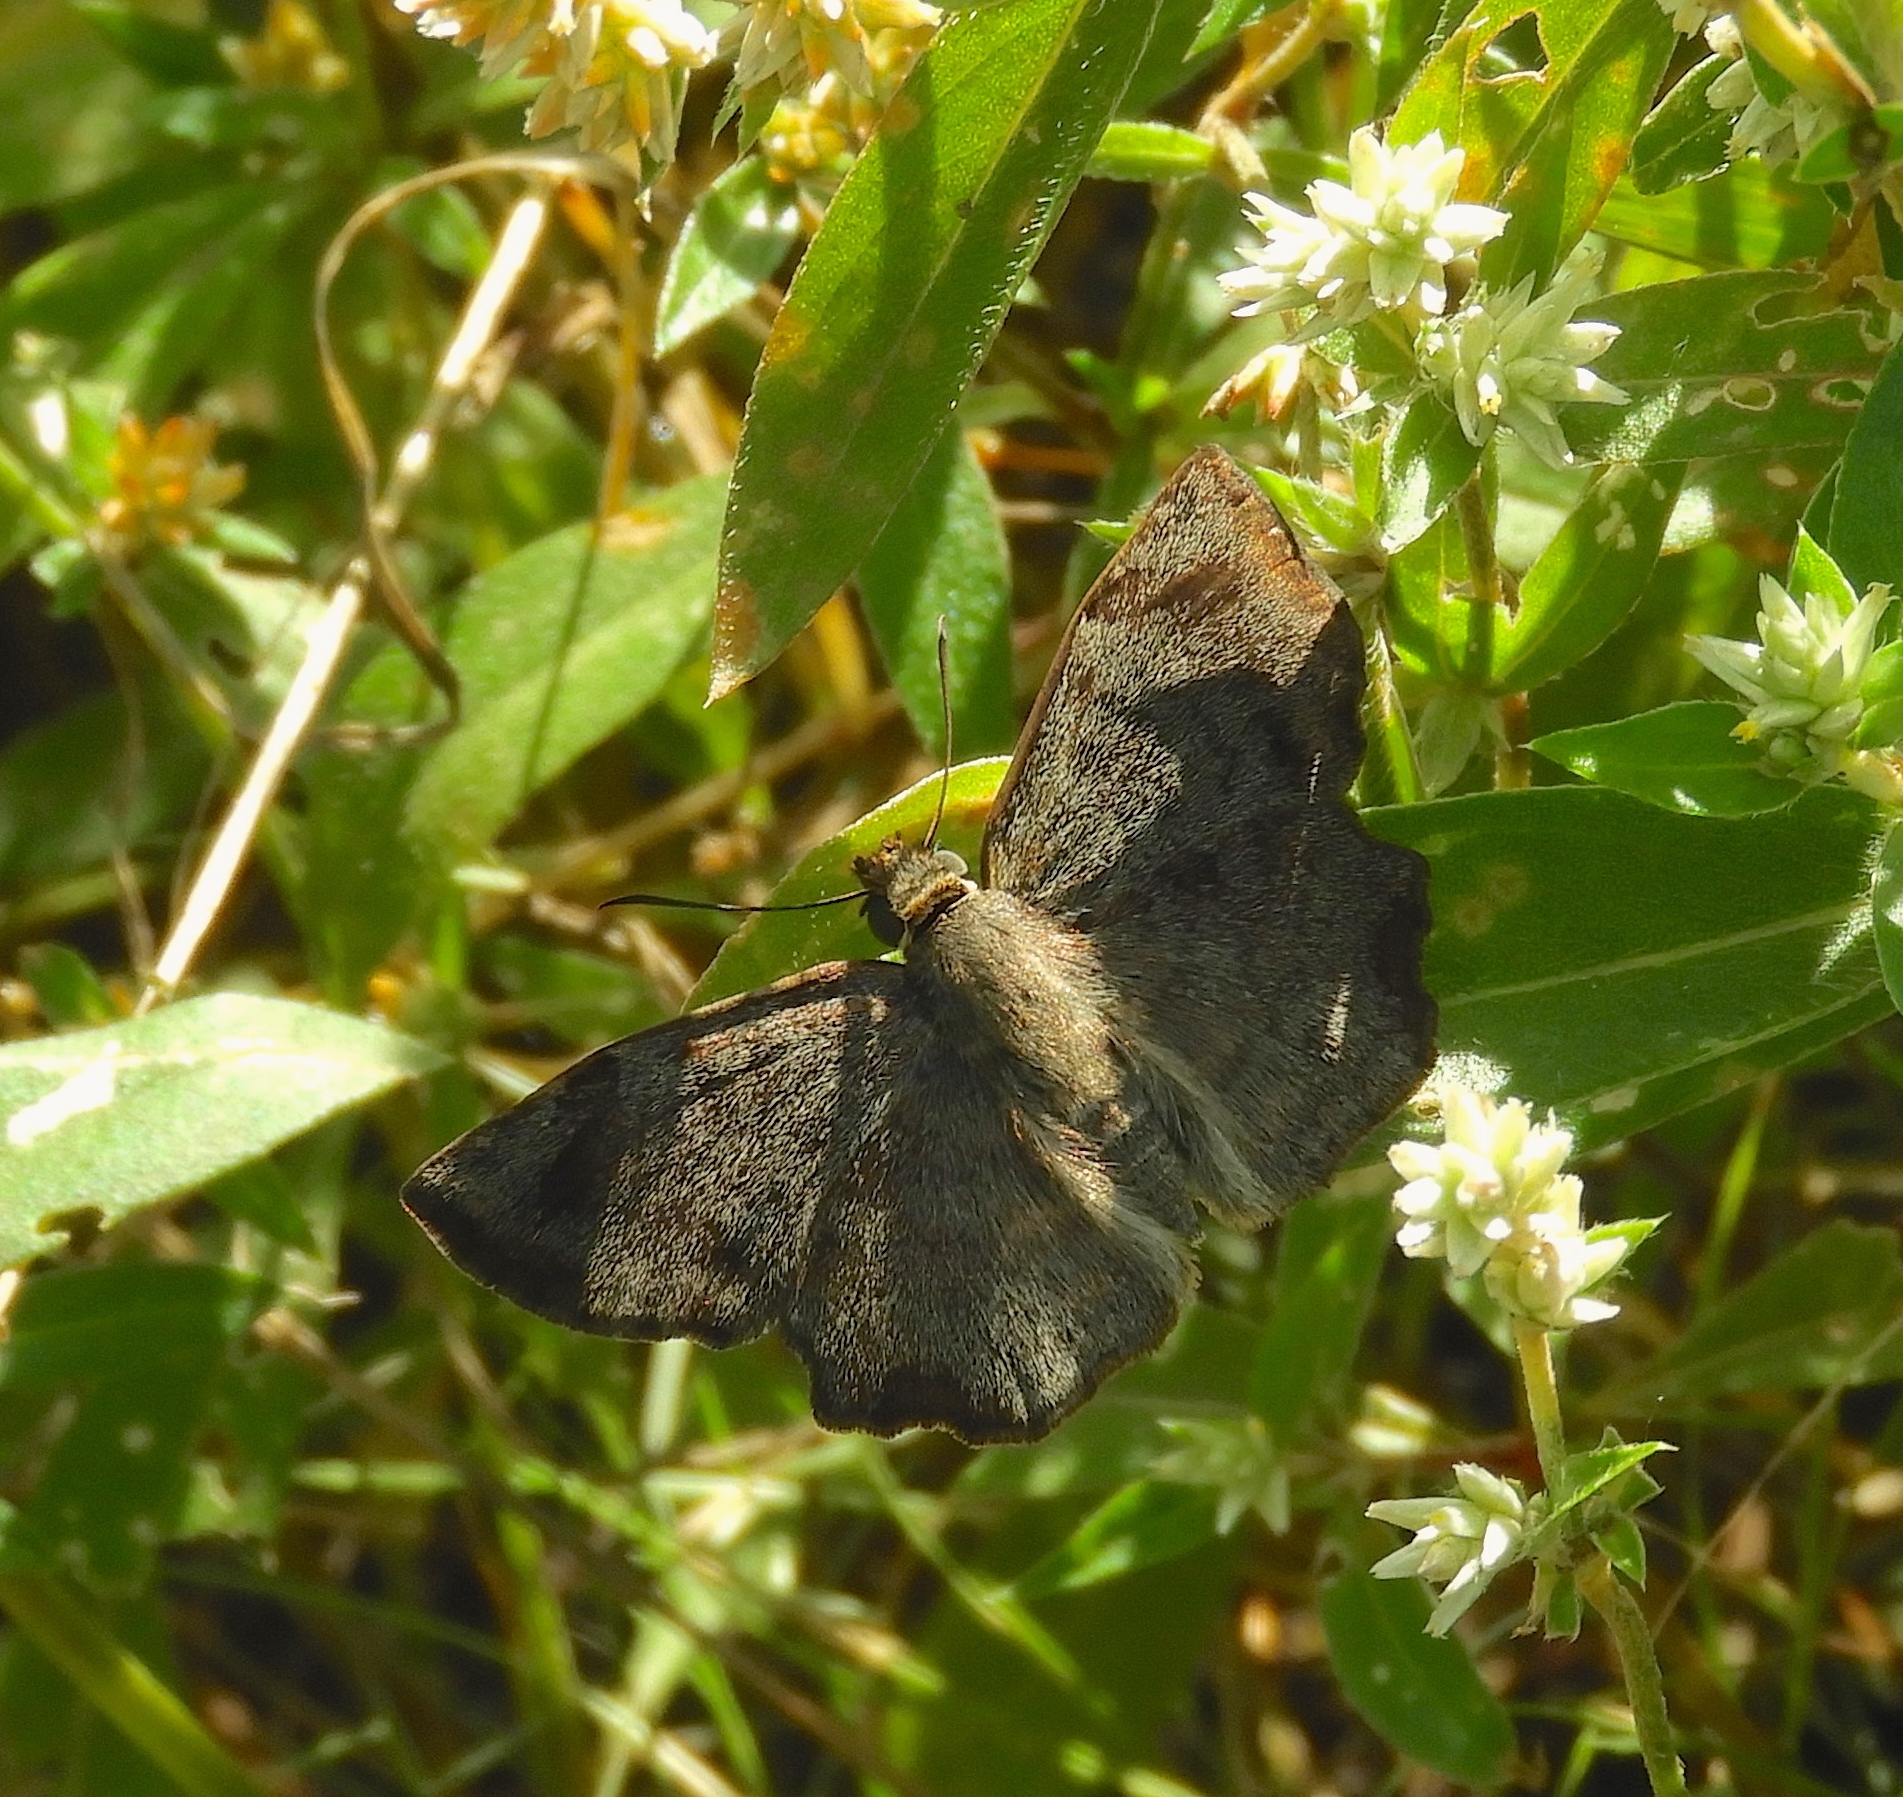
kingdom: Animalia
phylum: Arthropoda
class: Insecta
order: Lepidoptera
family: Hesperiidae
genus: Antigonus
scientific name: Antigonus erosus
